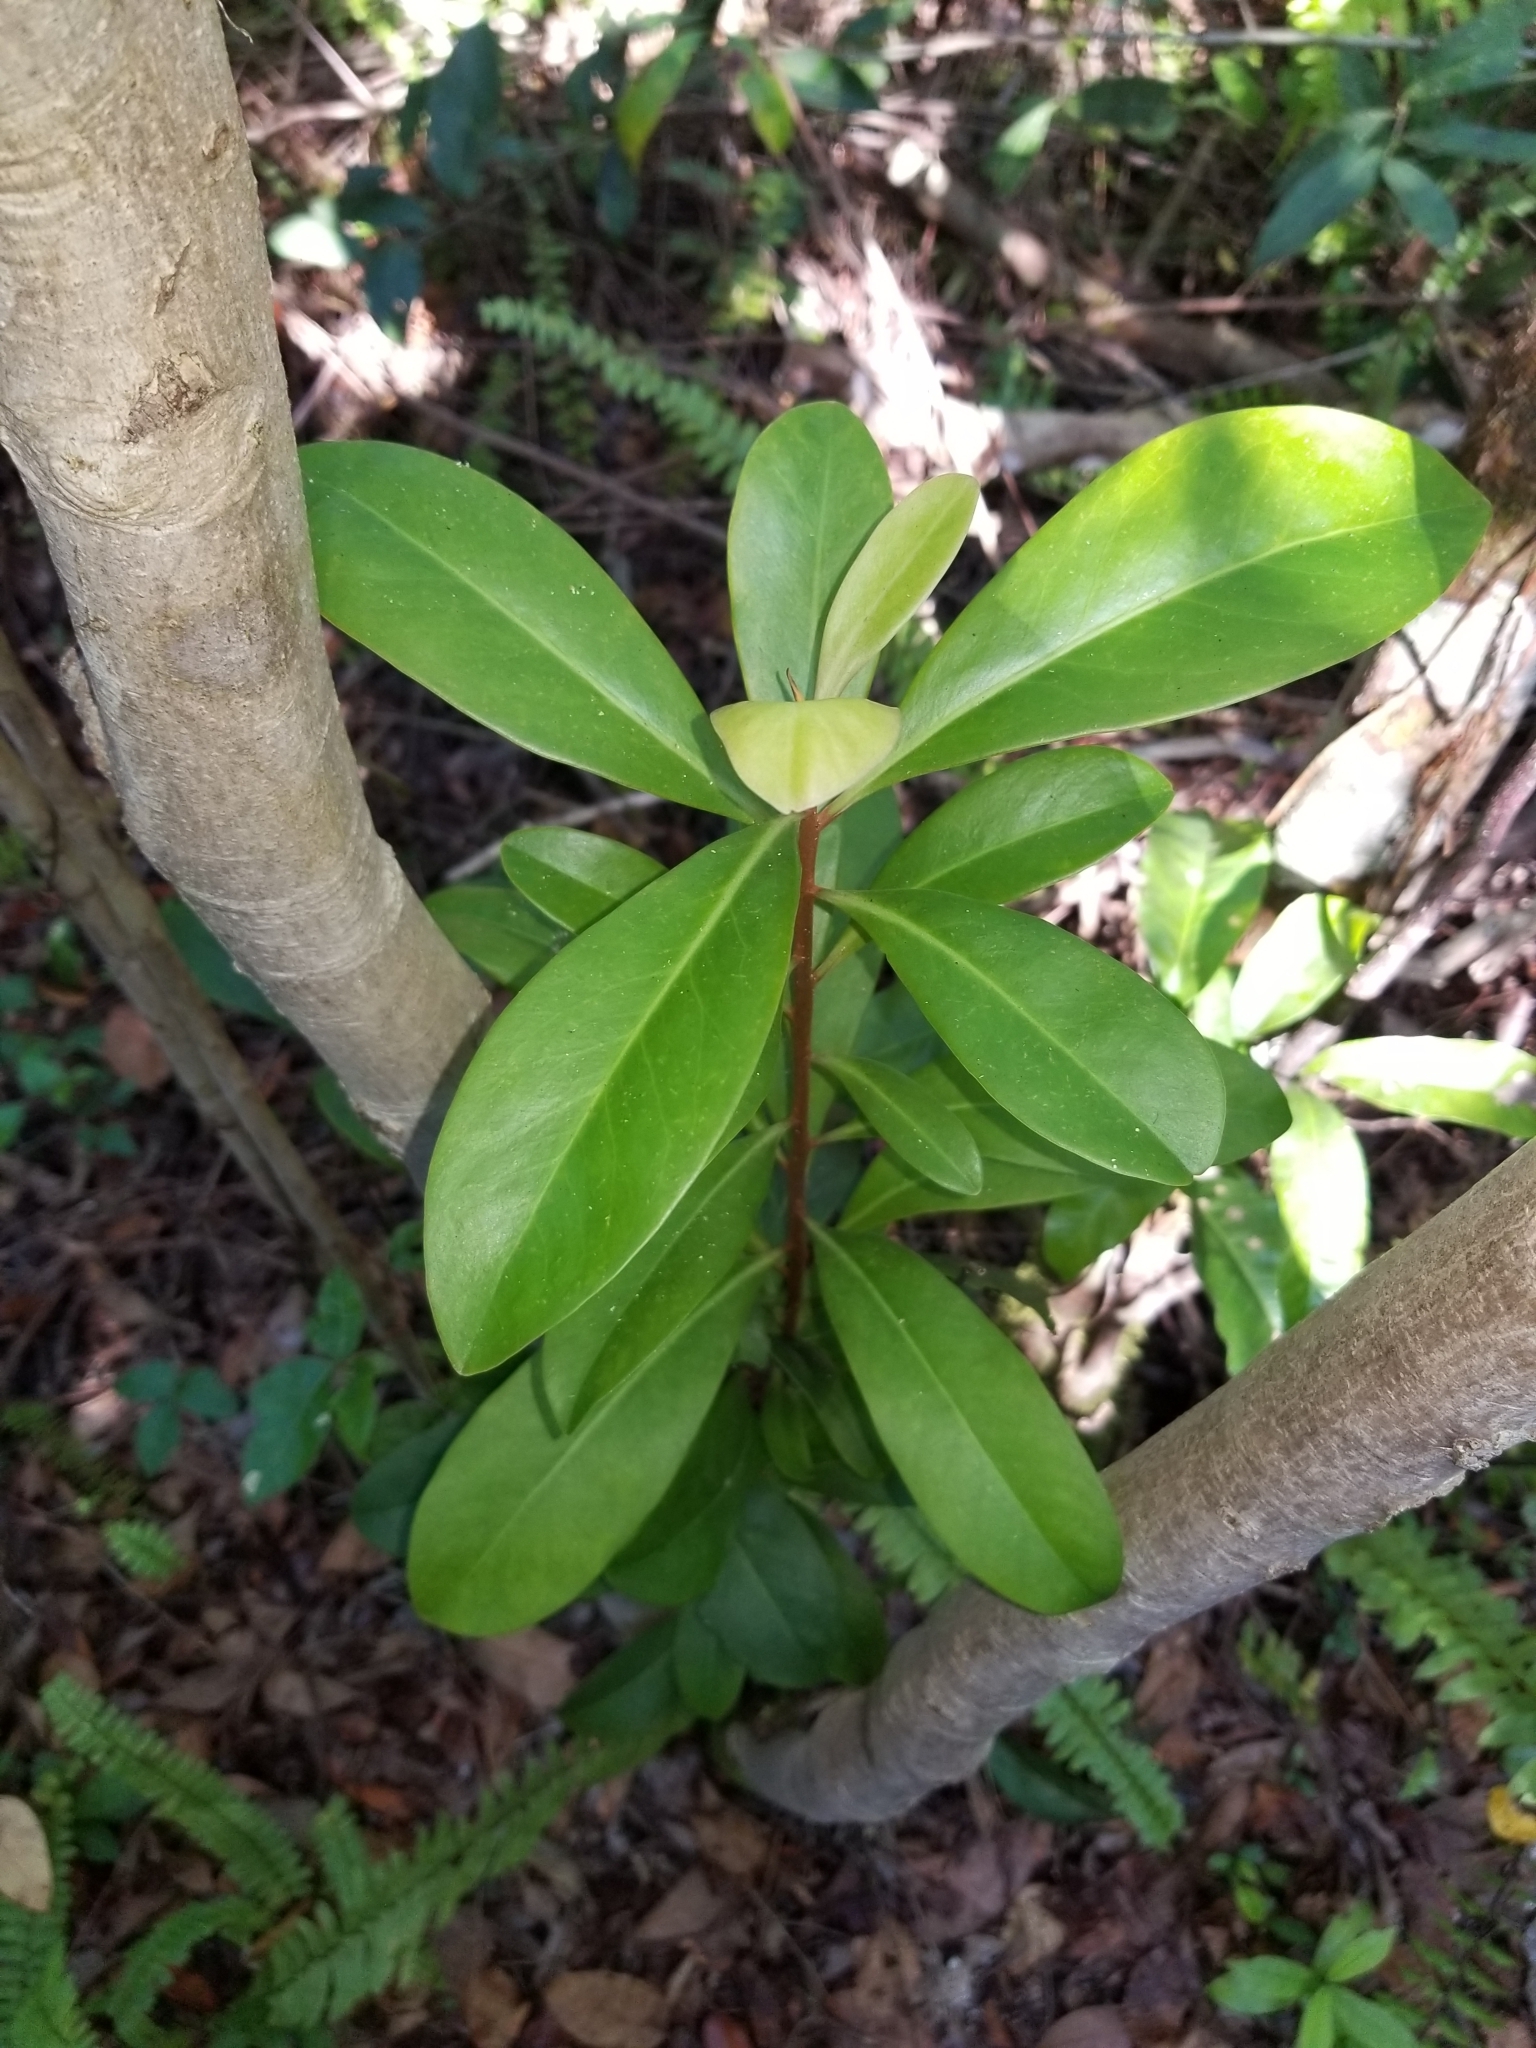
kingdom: Plantae
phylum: Tracheophyta
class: Magnoliopsida
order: Ericales
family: Primulaceae
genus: Ardisia
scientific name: Ardisia escallonioides
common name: Island marlberry
